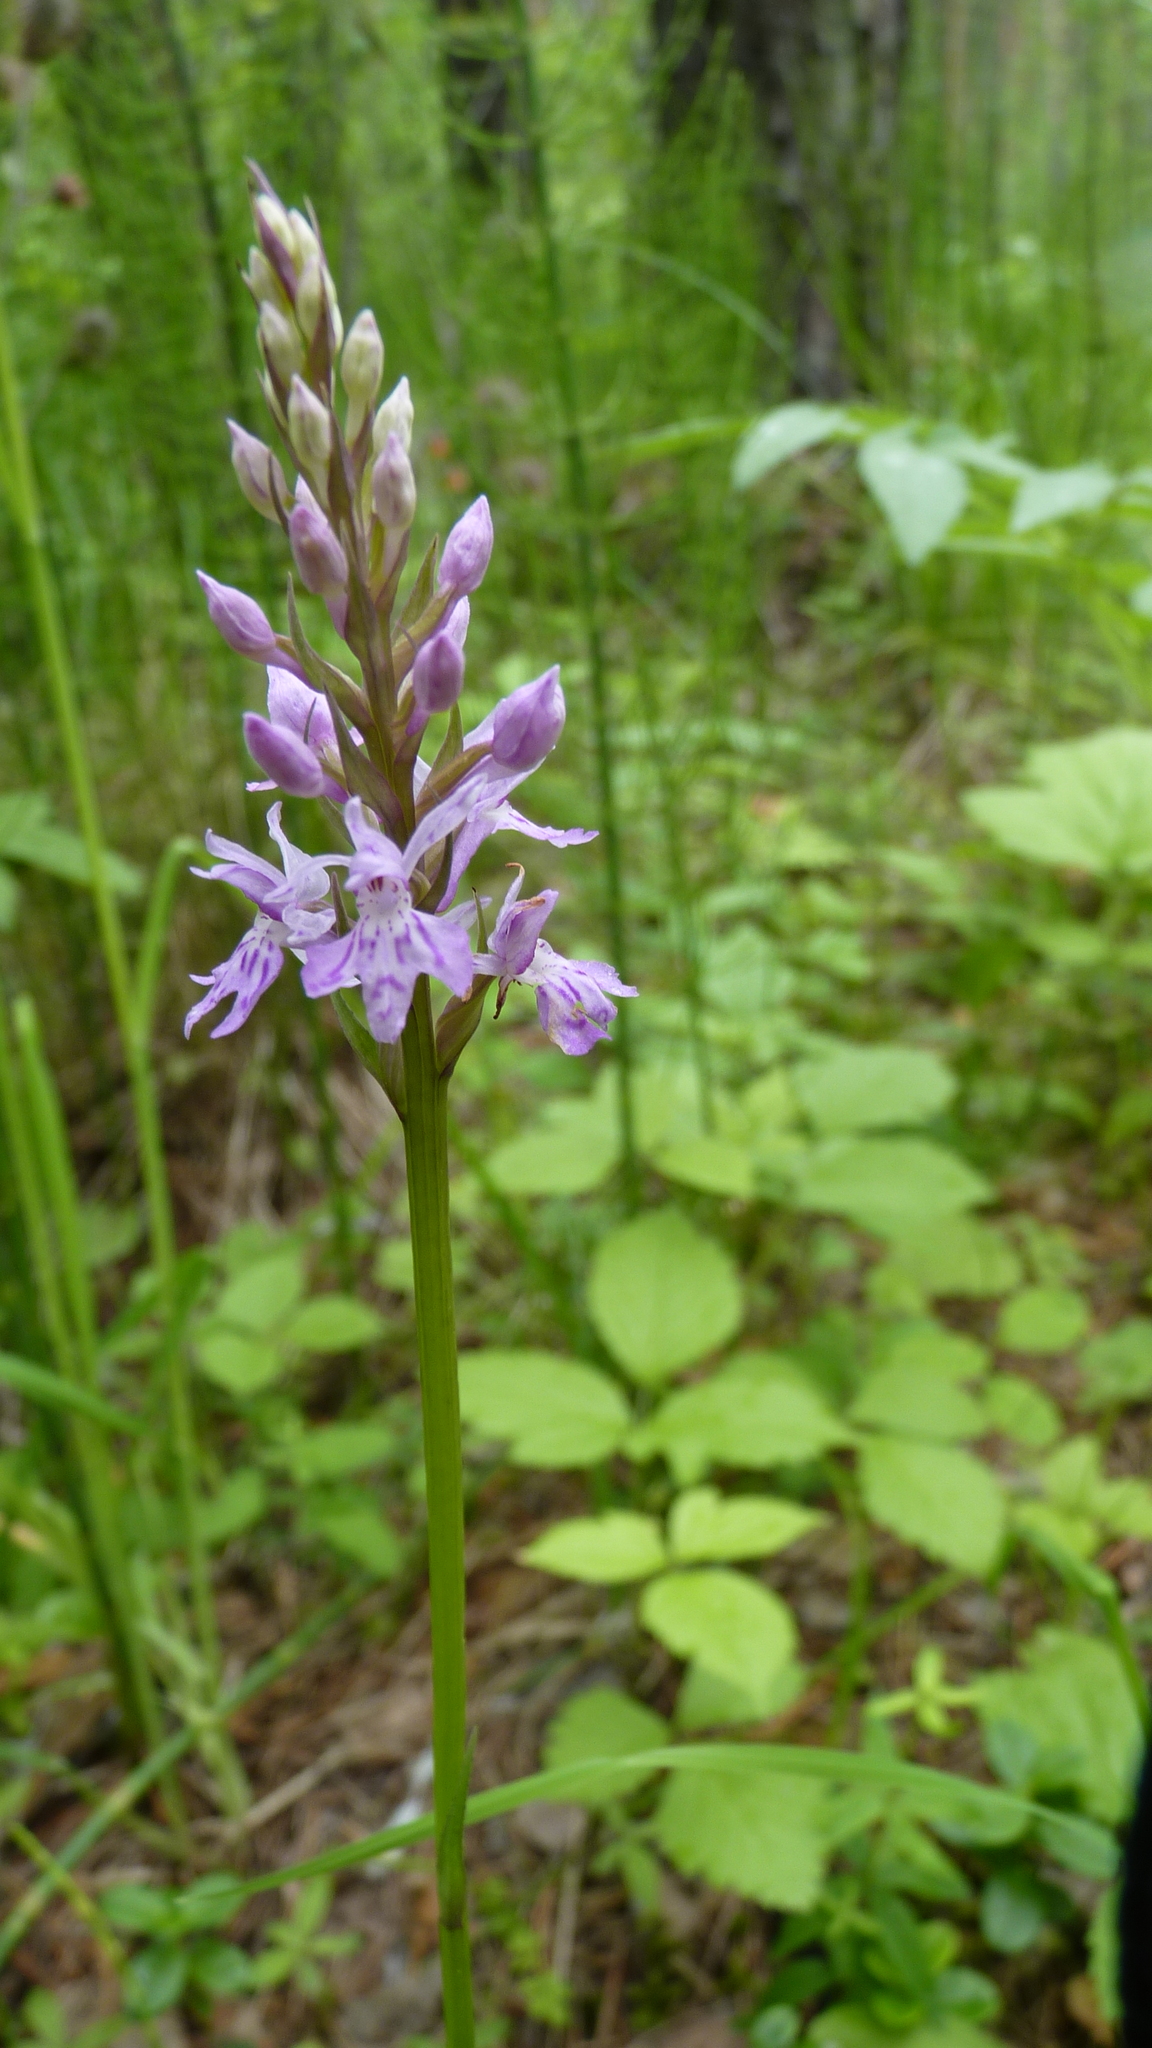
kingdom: Plantae
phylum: Tracheophyta
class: Liliopsida
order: Asparagales
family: Orchidaceae
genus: Dactylorhiza
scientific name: Dactylorhiza maculata
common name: Heath spotted-orchid
